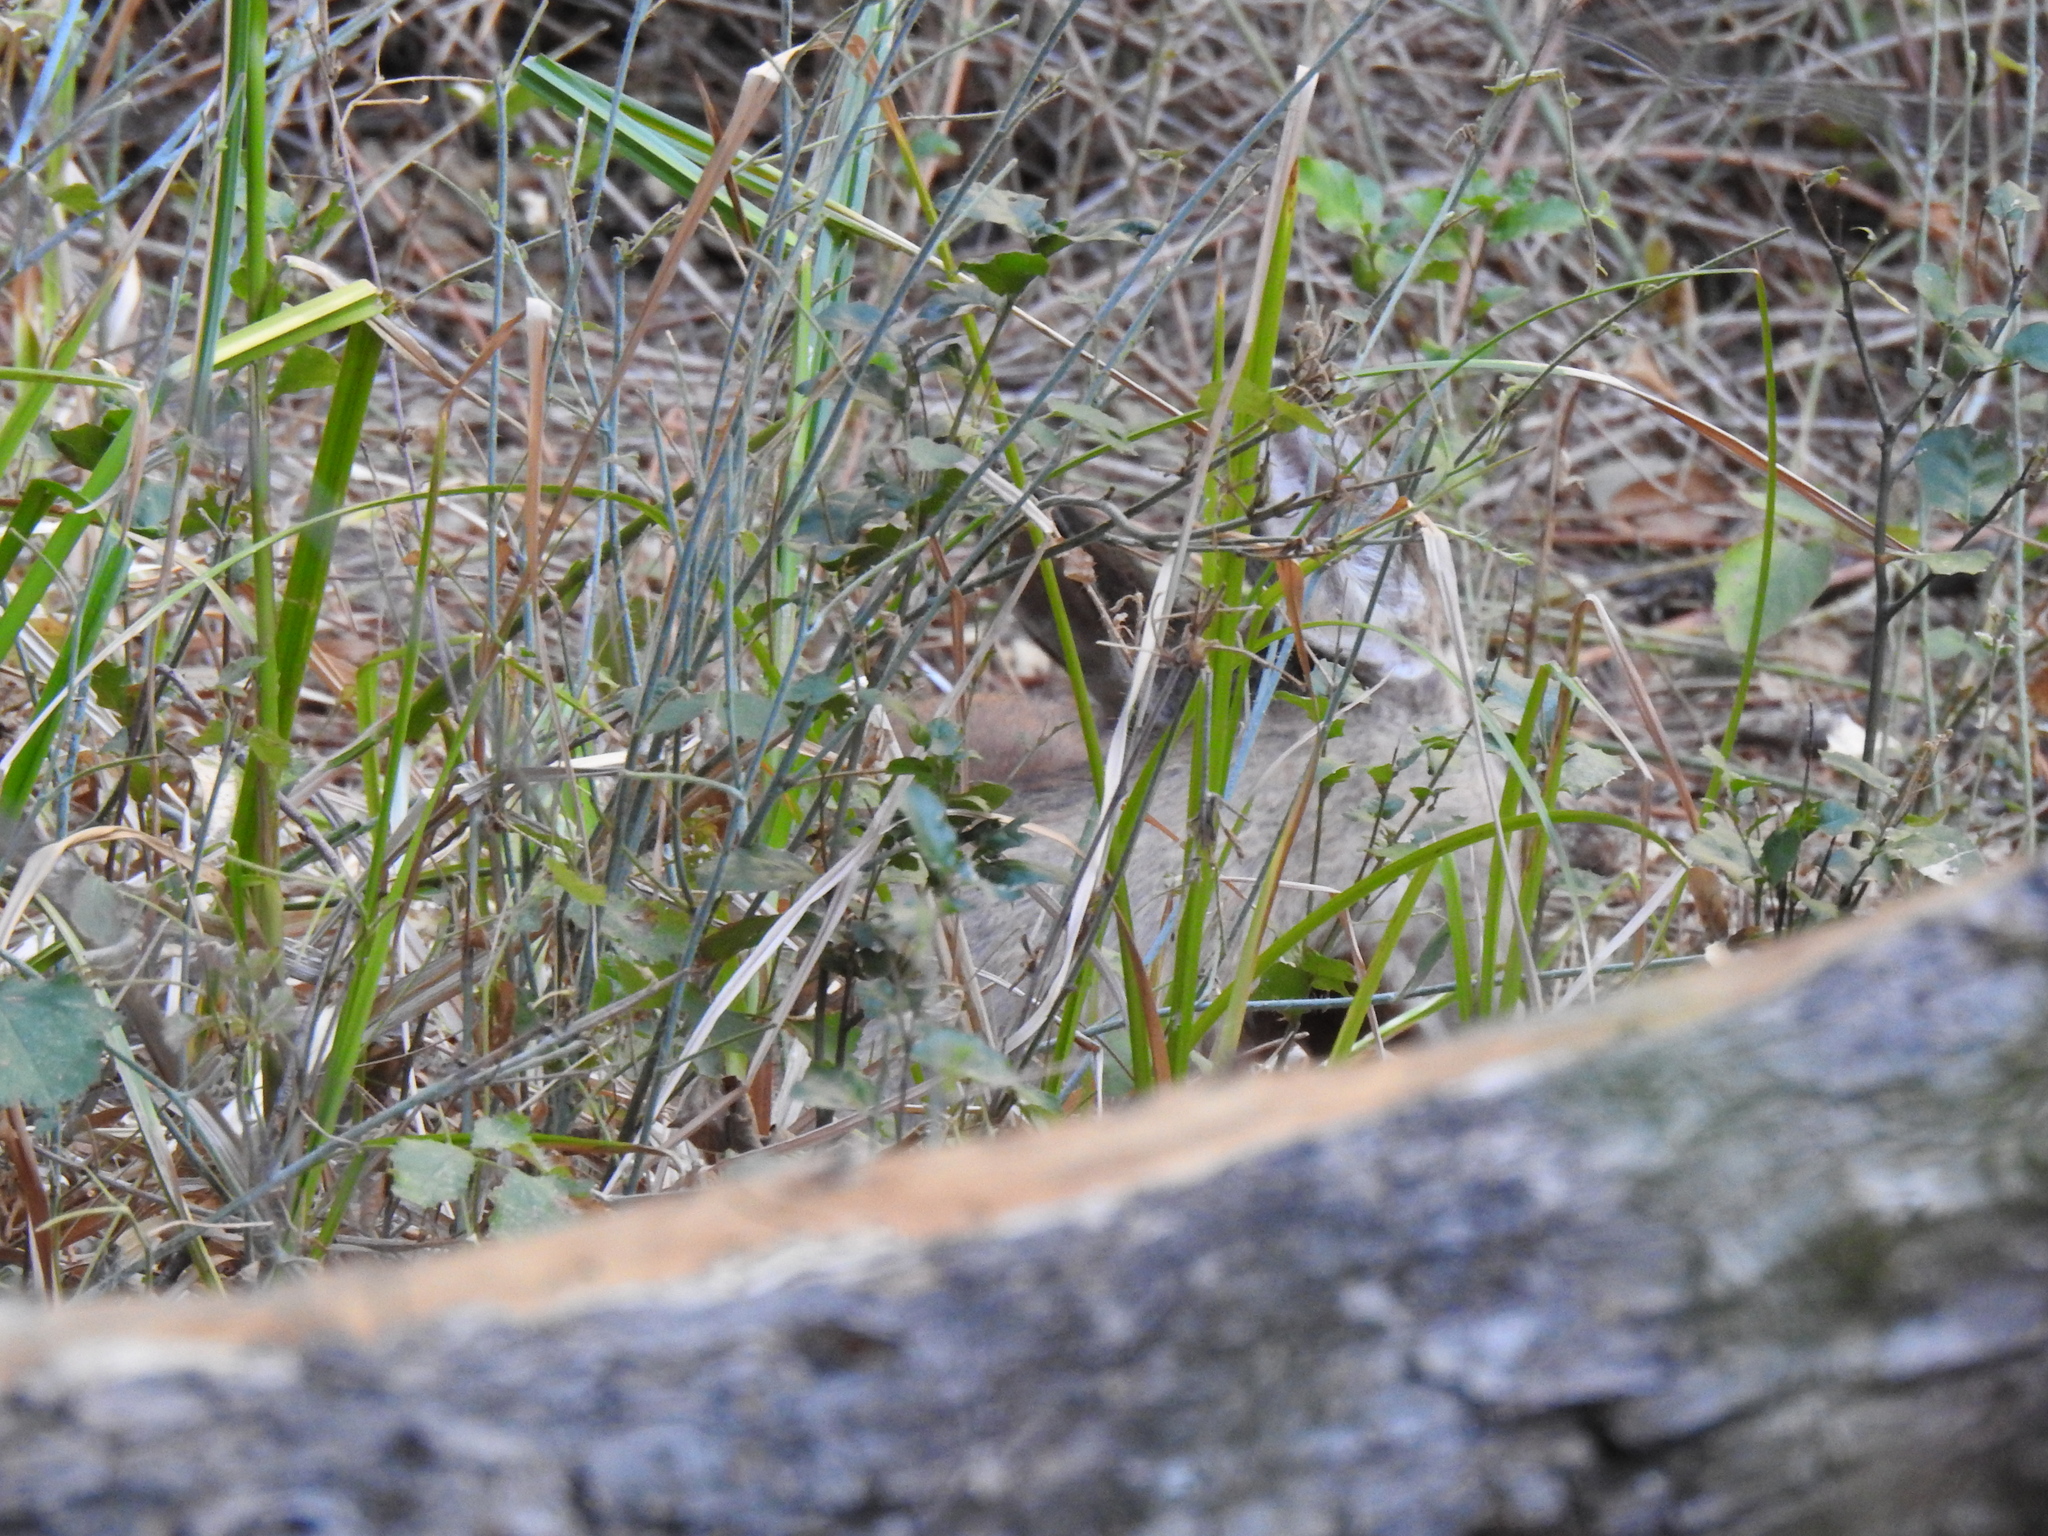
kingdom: Animalia
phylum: Chordata
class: Mammalia
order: Artiodactyla
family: Cervidae
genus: Odocoileus
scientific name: Odocoileus hemionus
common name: Mule deer
